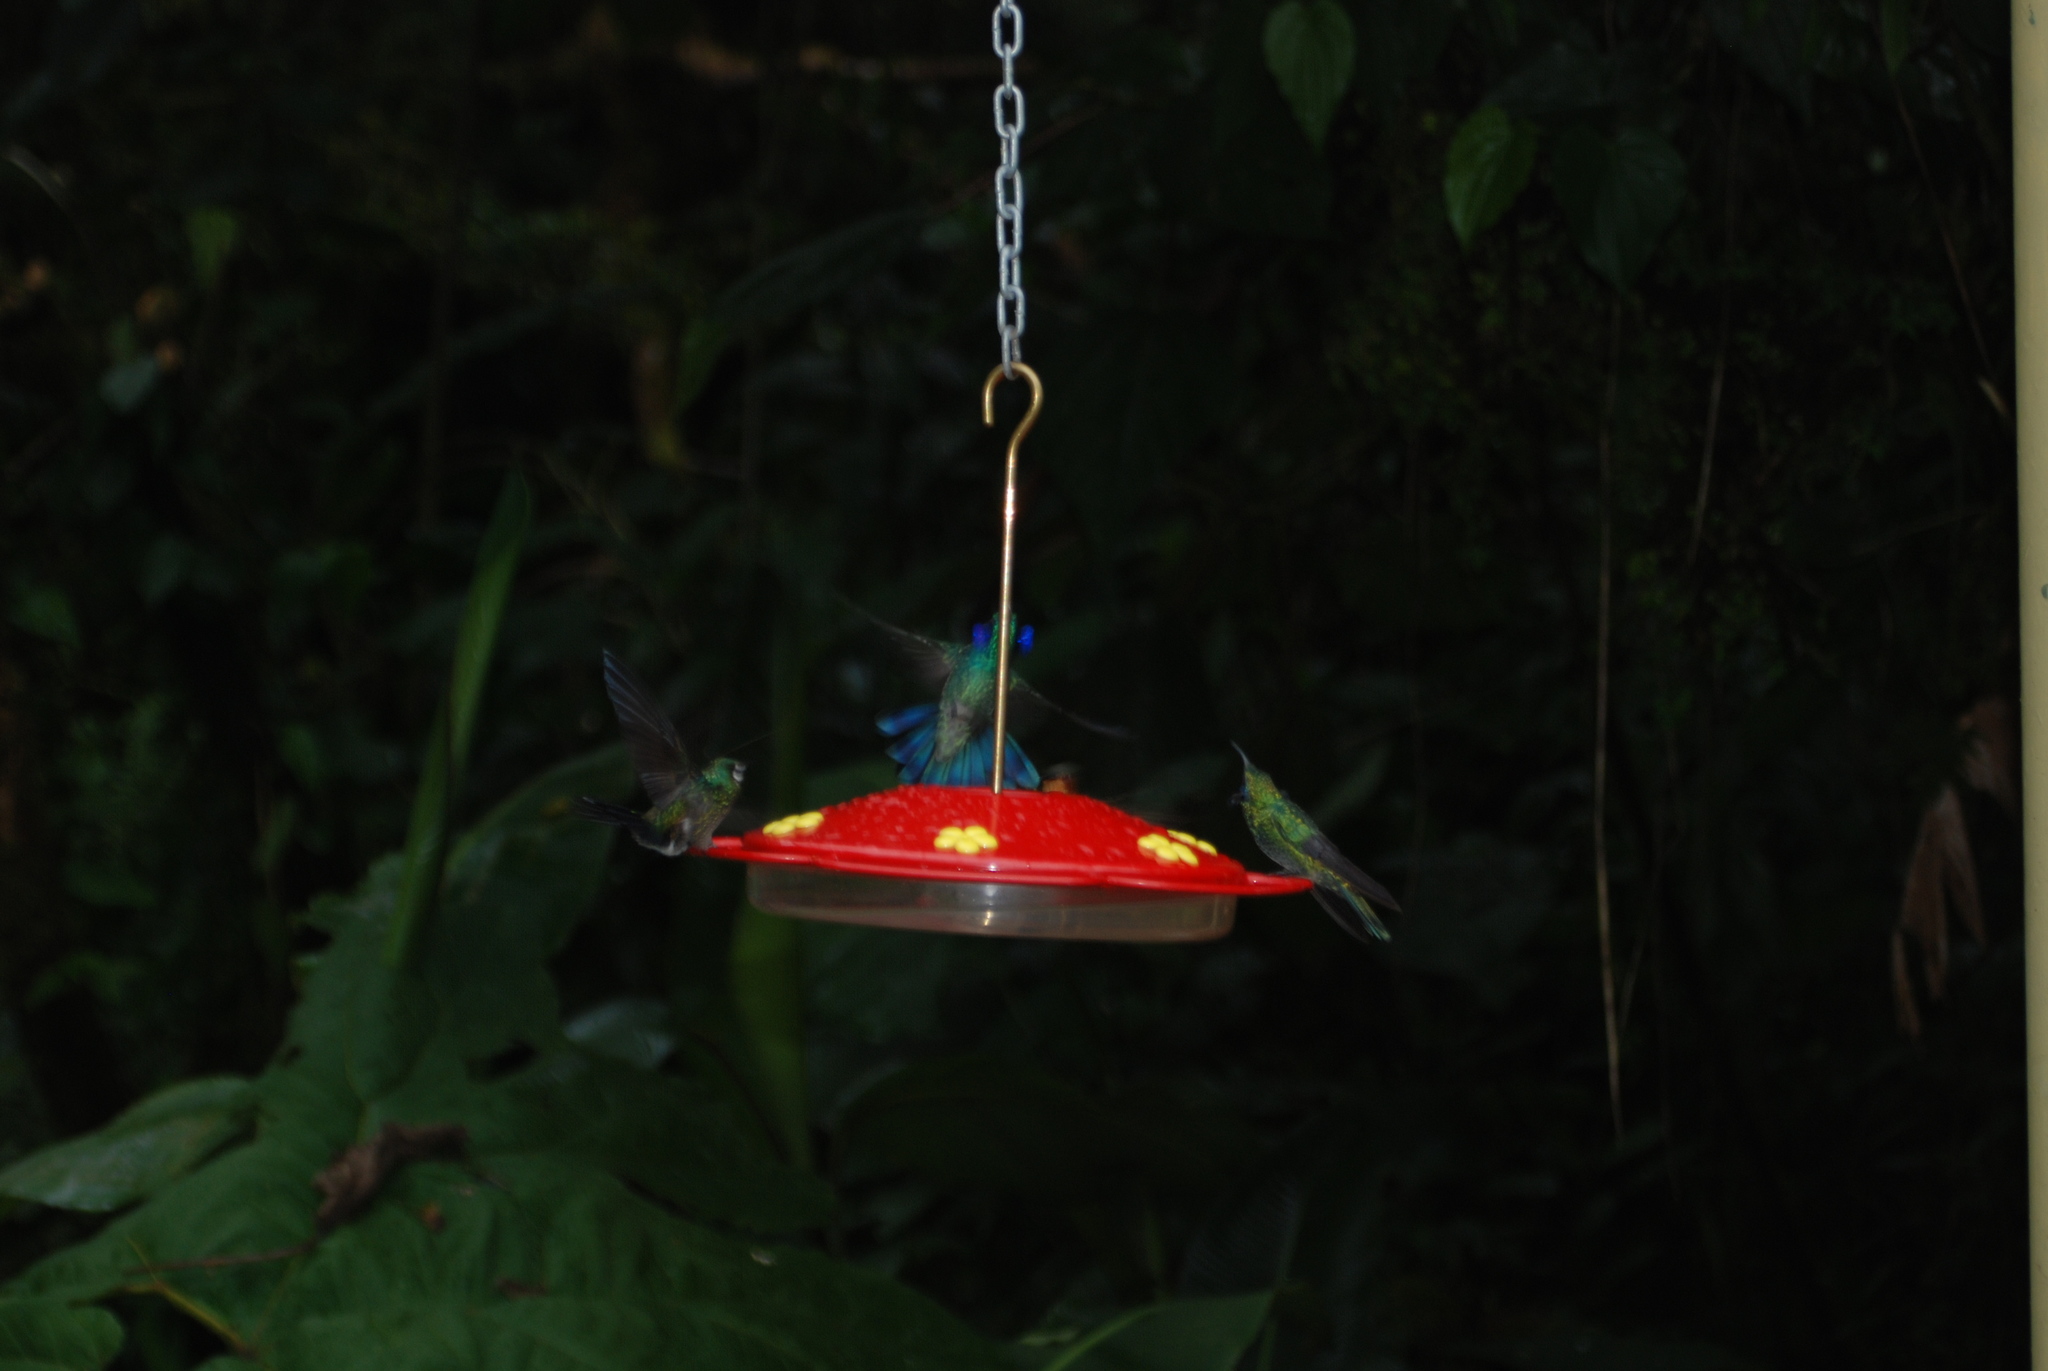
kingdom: Animalia
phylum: Chordata
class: Aves
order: Apodiformes
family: Trochilidae
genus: Colibri
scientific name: Colibri cyanotus
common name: Lesser violetear
